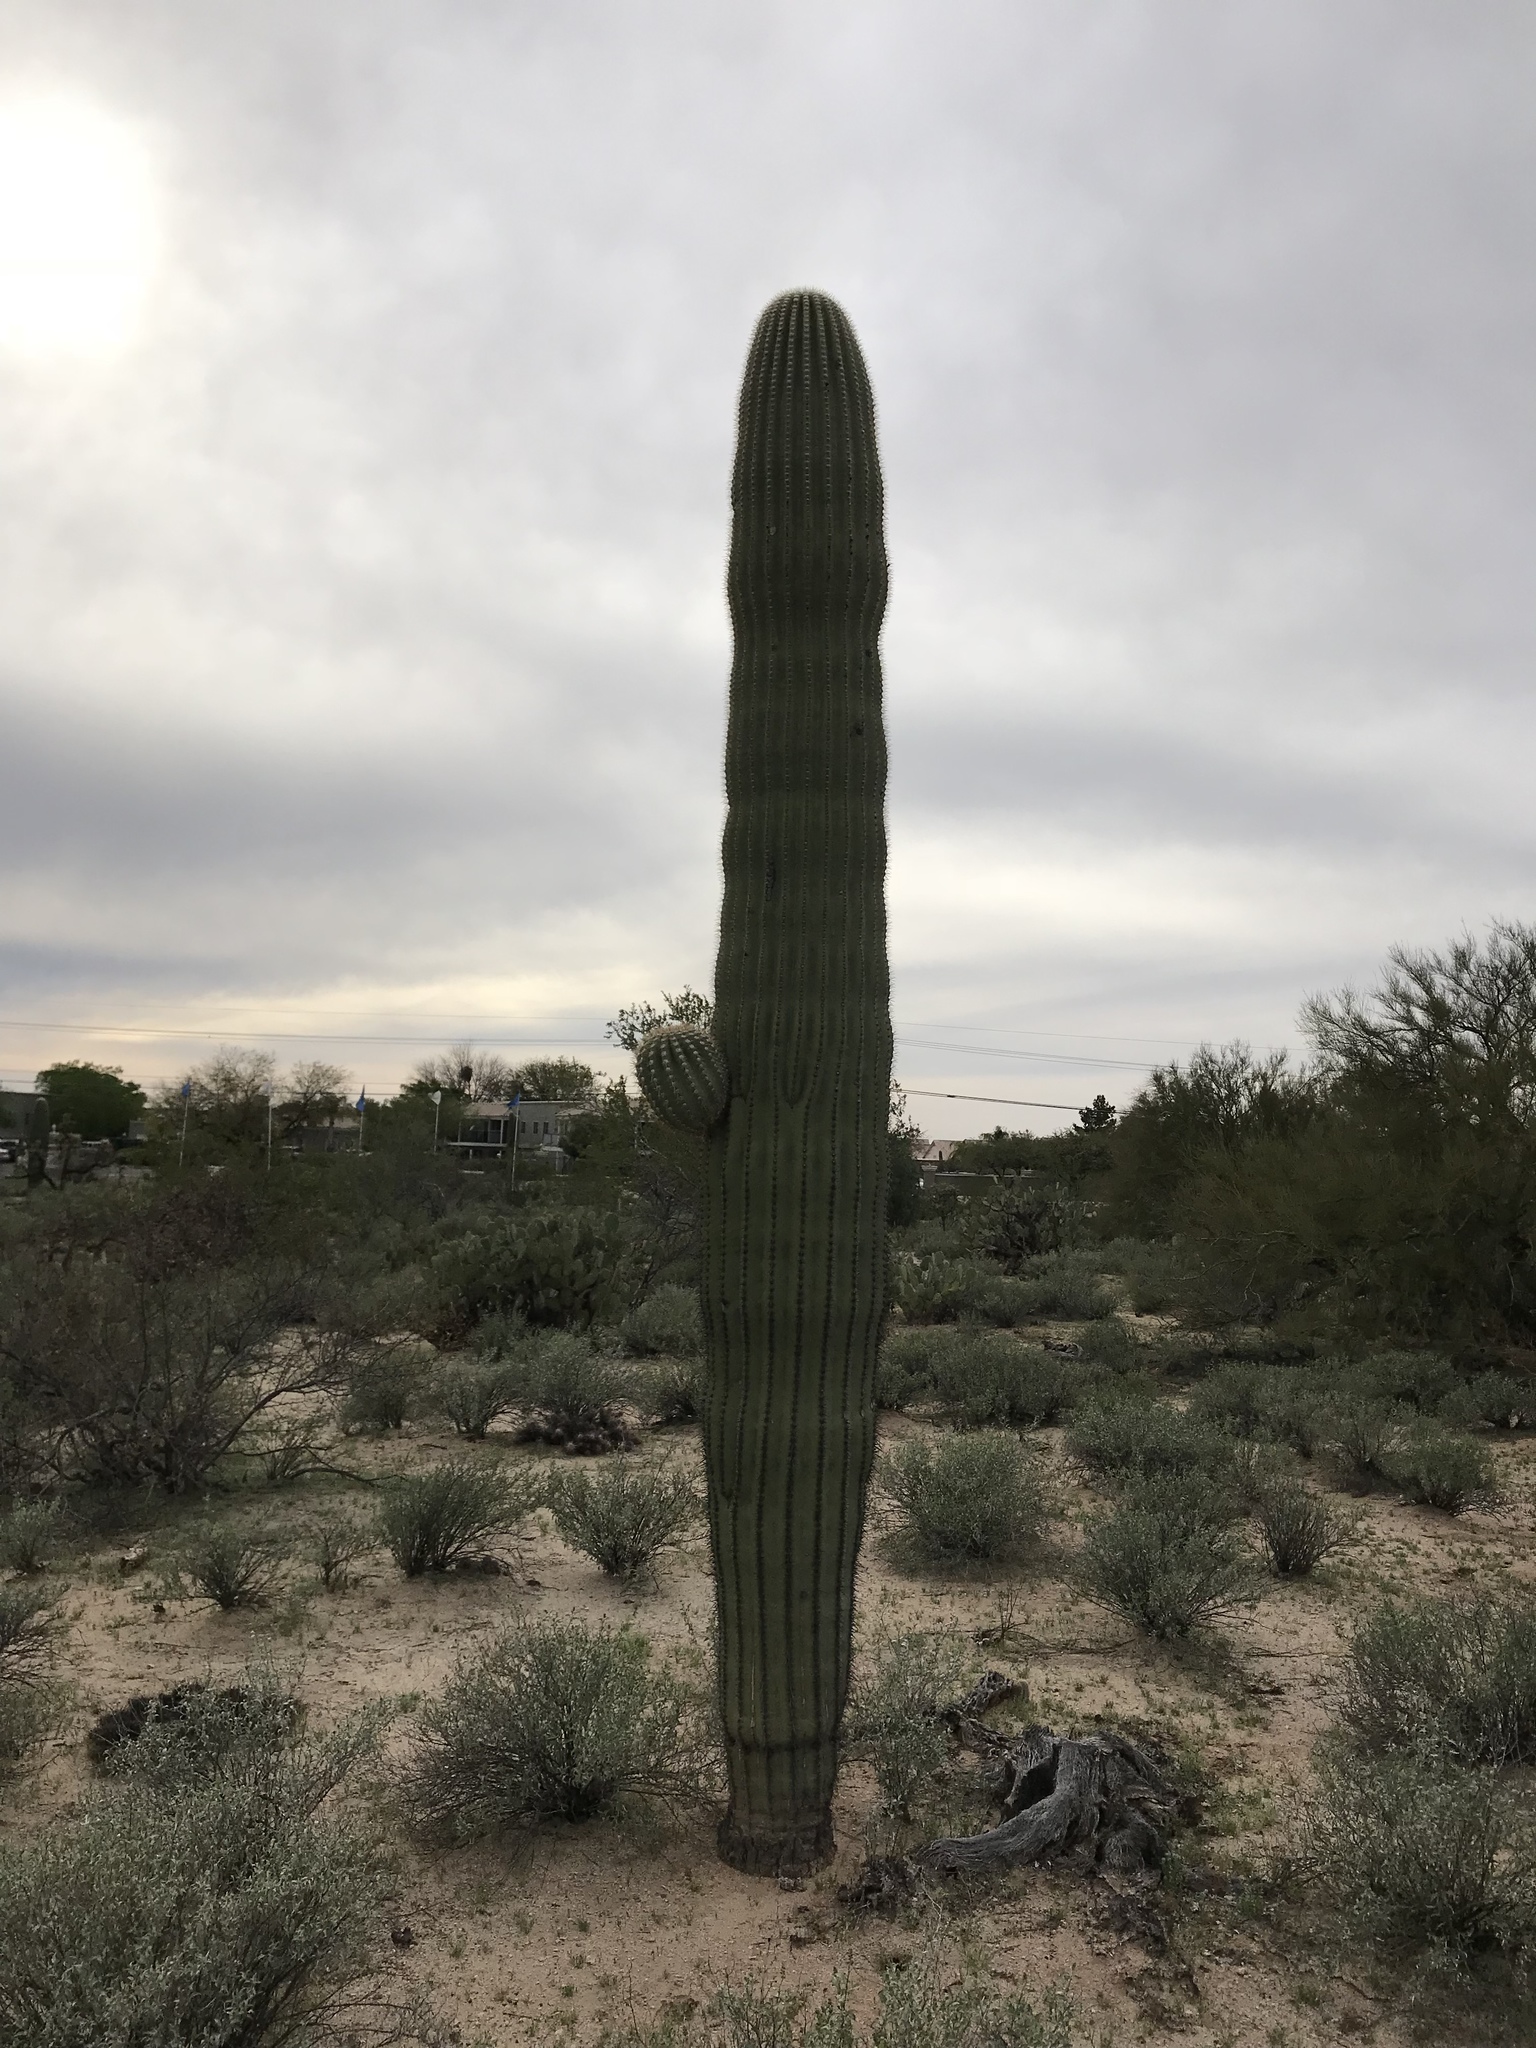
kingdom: Plantae
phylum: Tracheophyta
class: Magnoliopsida
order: Caryophyllales
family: Cactaceae
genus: Carnegiea
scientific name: Carnegiea gigantea
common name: Saguaro
